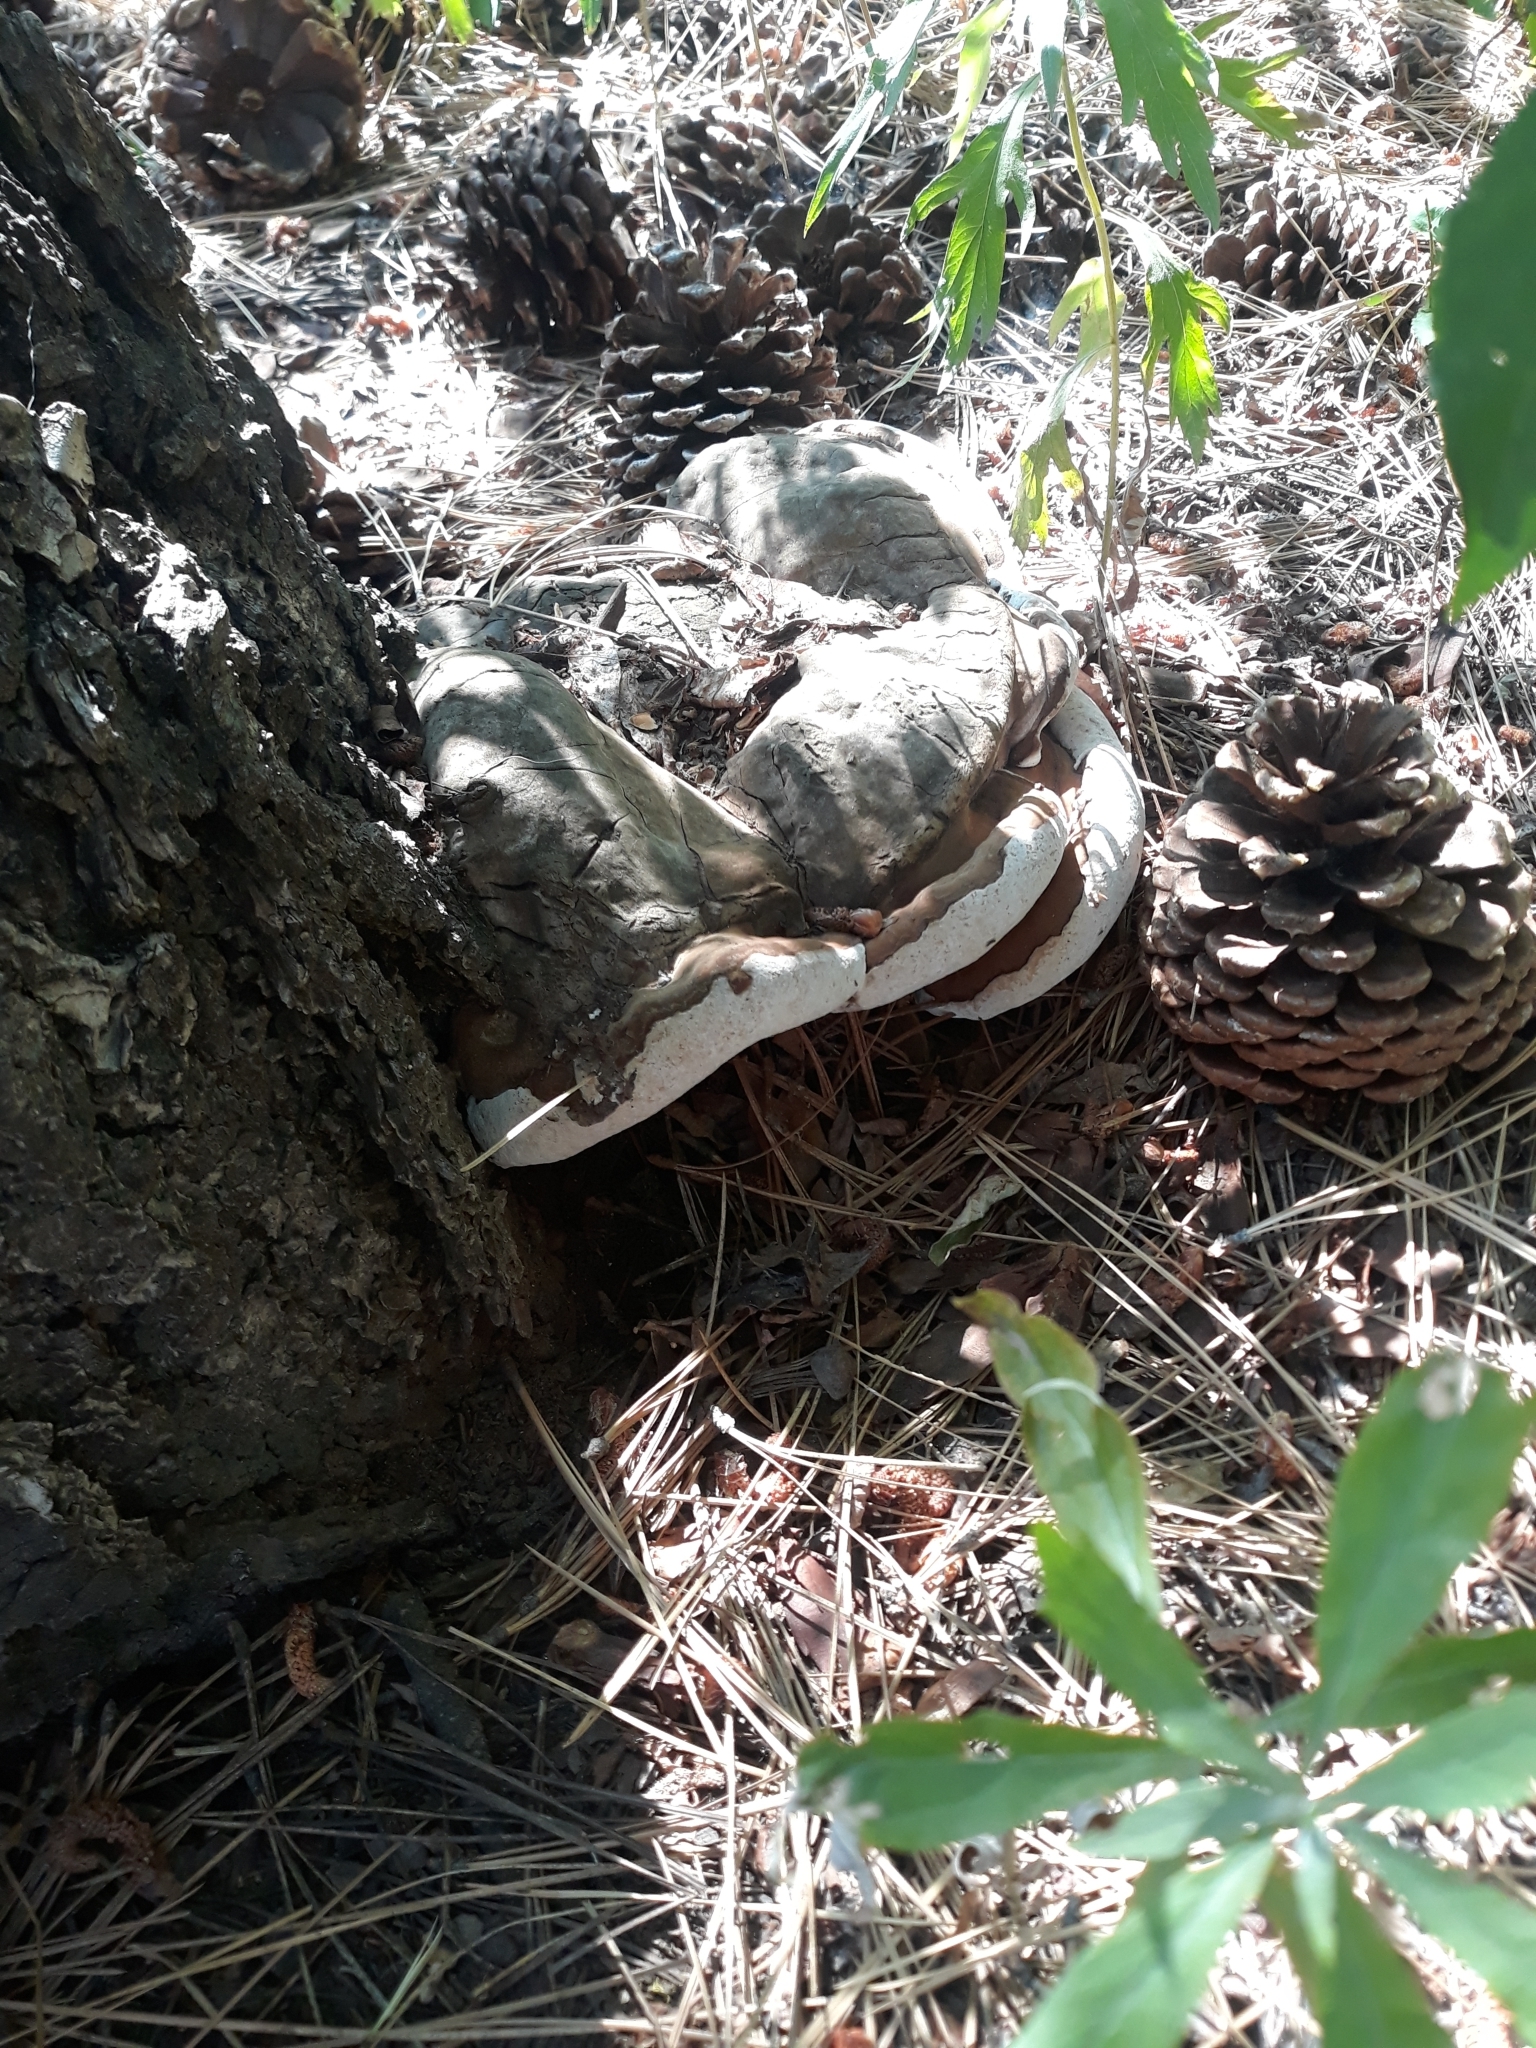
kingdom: Fungi
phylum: Basidiomycota
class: Agaricomycetes
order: Polyporales
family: Polyporaceae
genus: Ganoderma
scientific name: Ganoderma applanatum
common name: Artist's bracket
